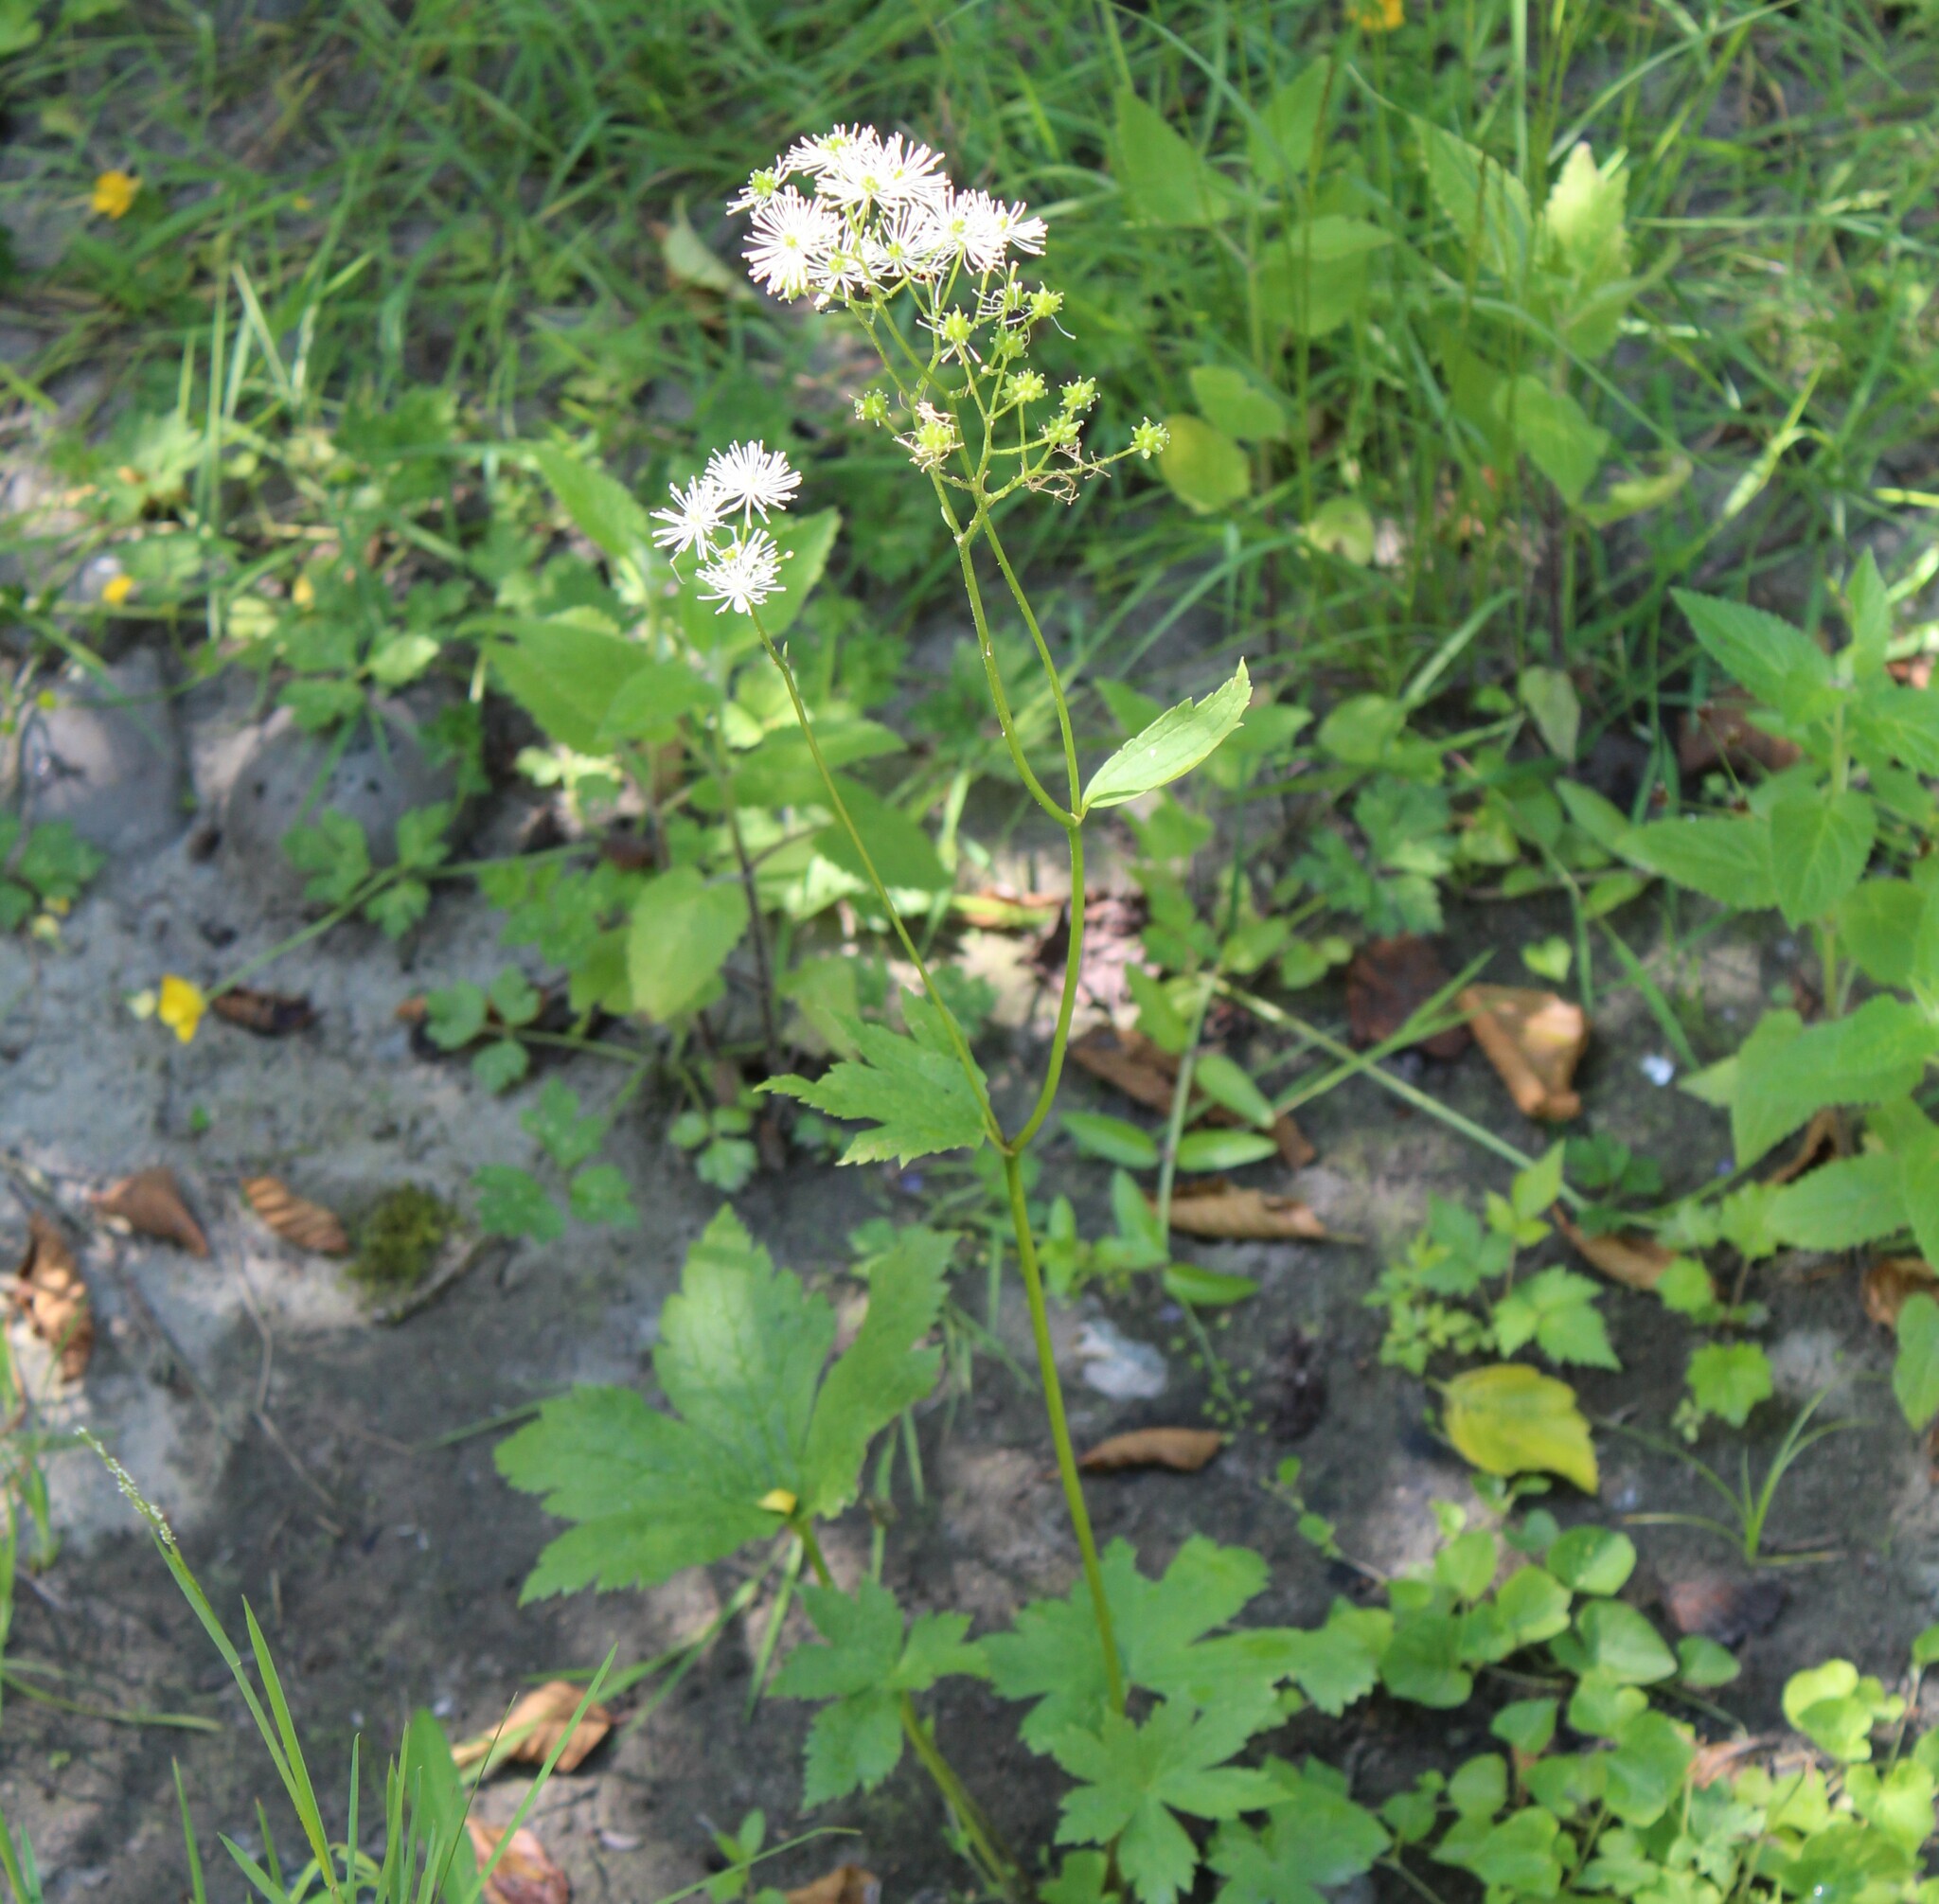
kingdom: Plantae
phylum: Tracheophyta
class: Magnoliopsida
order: Ranunculales
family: Ranunculaceae
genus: Trautvetteria
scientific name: Trautvetteria carolinensis
